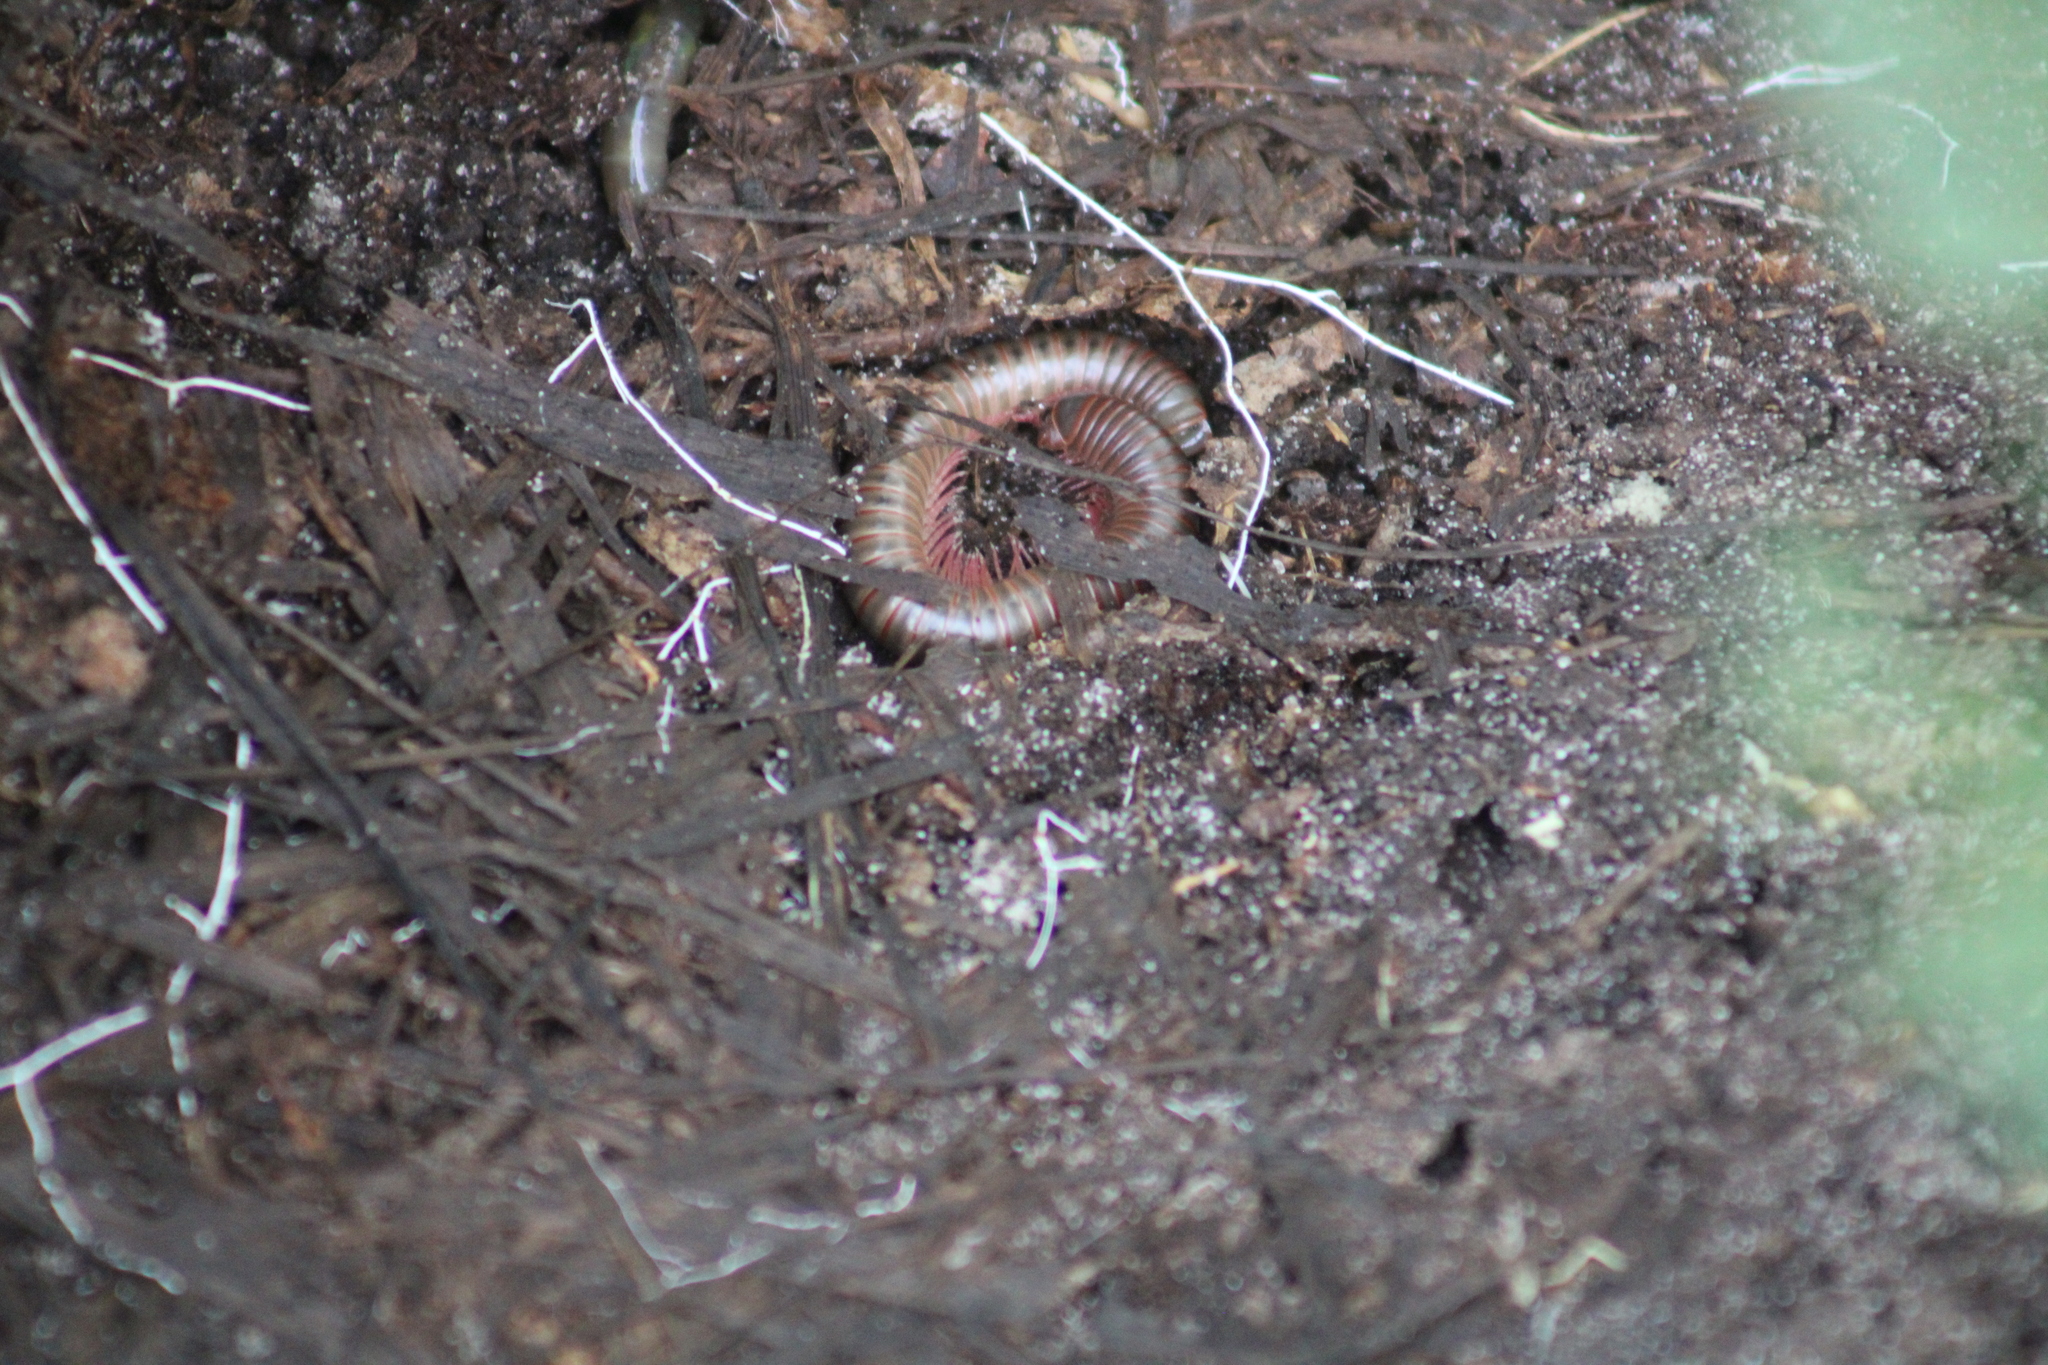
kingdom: Animalia
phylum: Arthropoda
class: Diplopoda
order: Spirobolida
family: Spirobolidae
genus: Narceus
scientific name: Narceus
